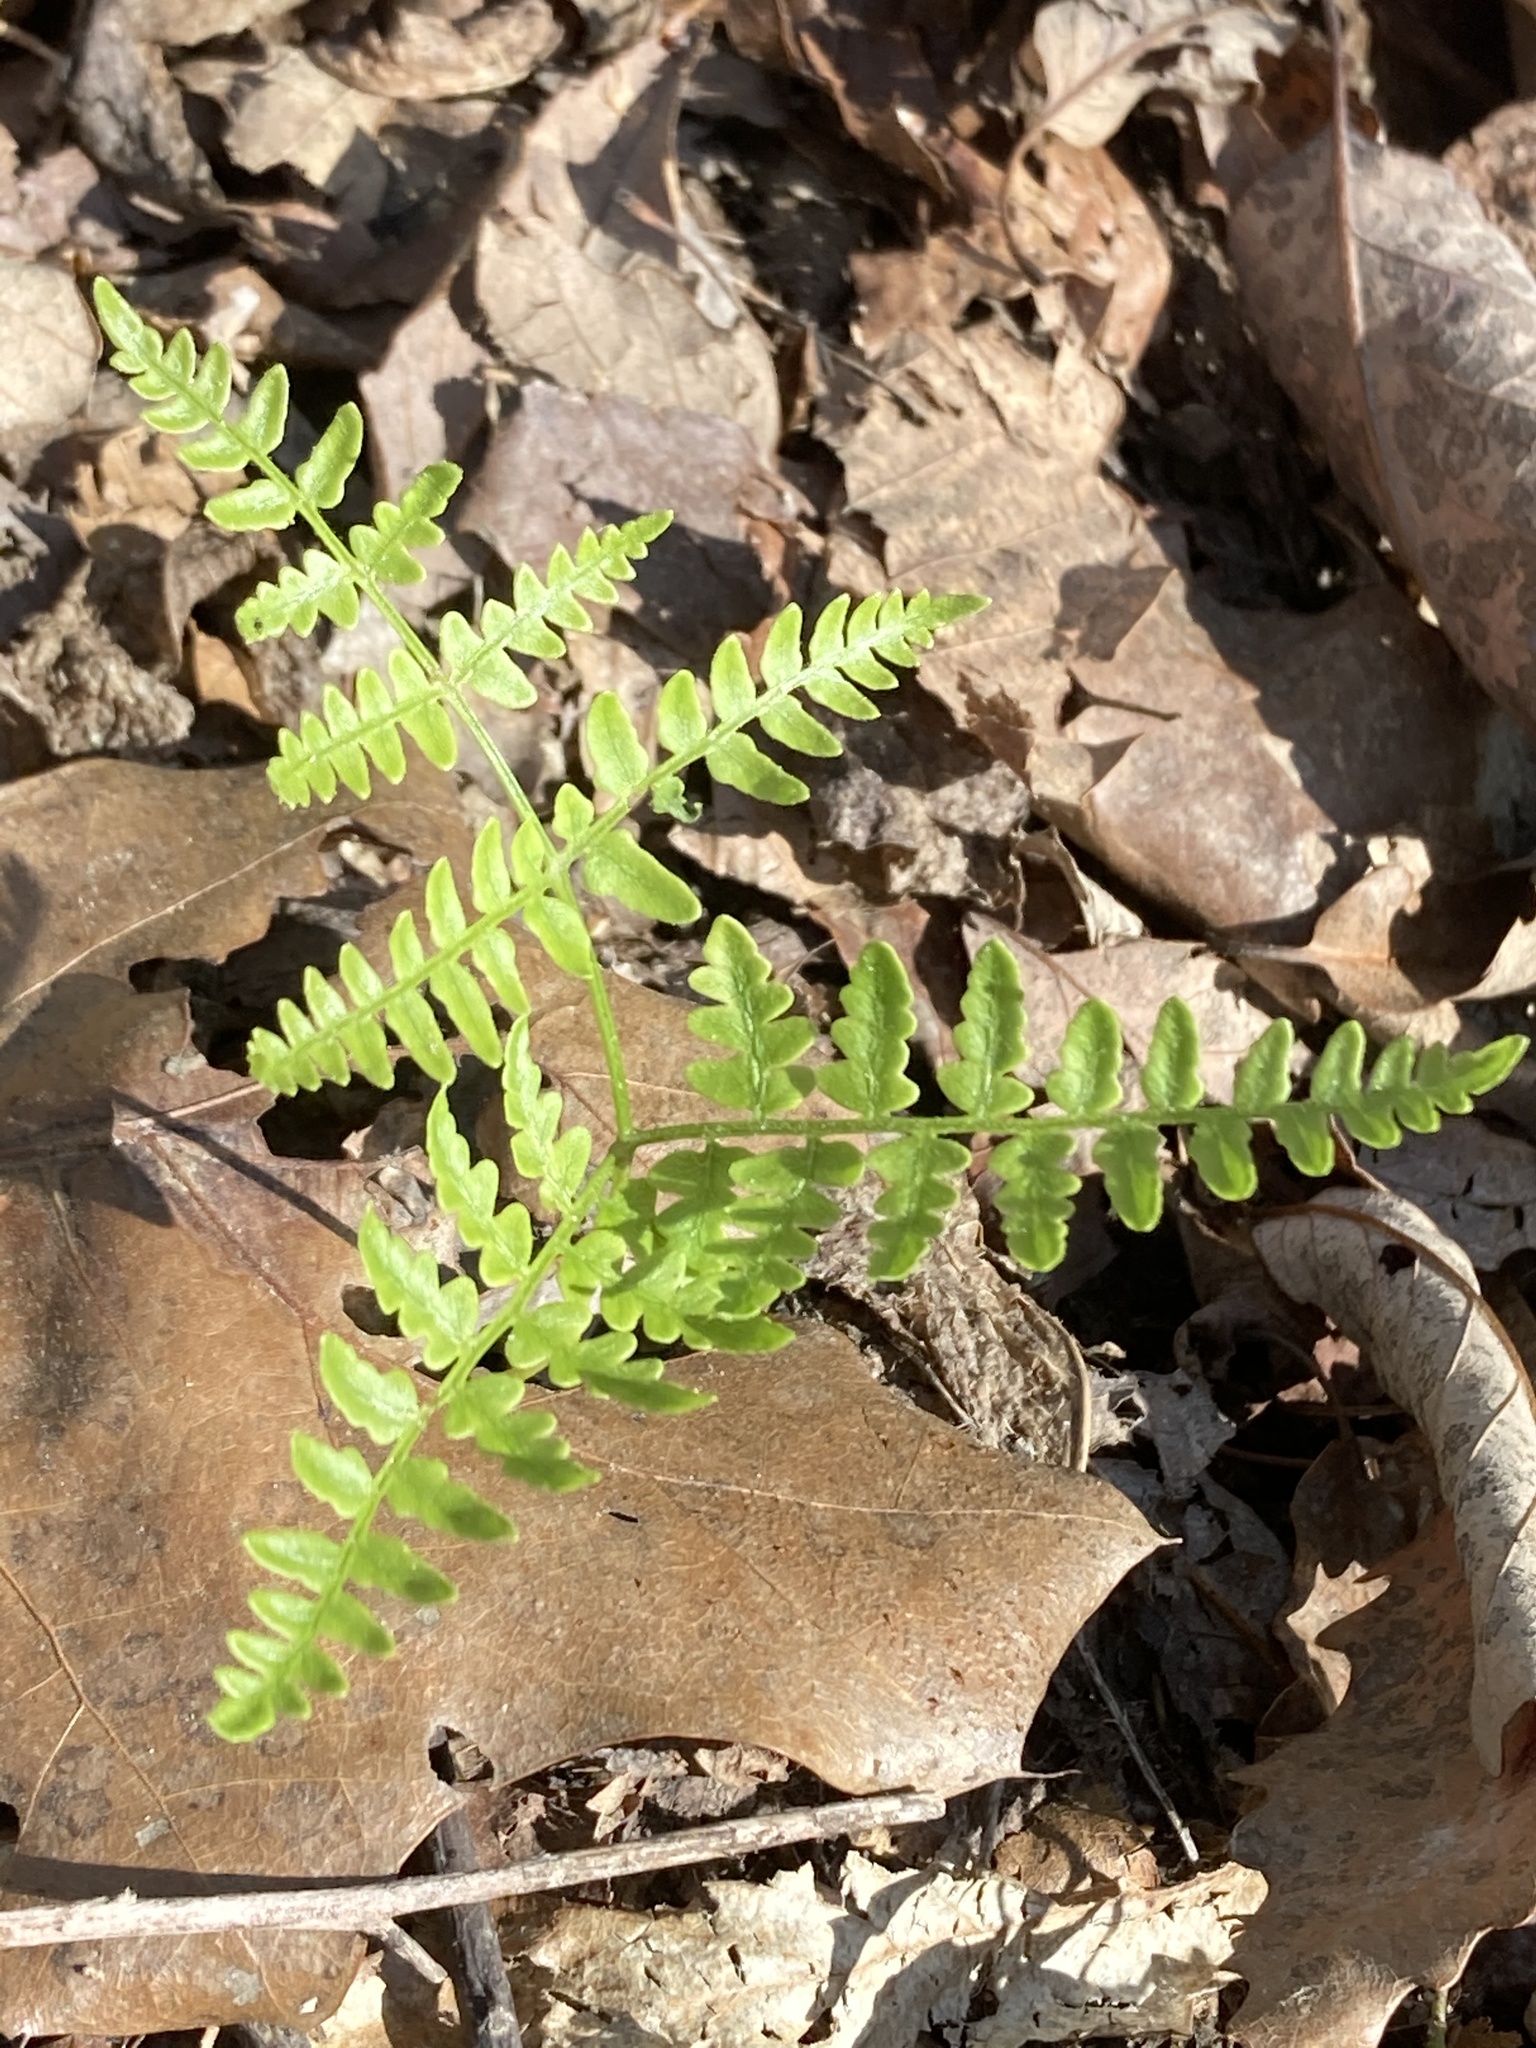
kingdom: Plantae
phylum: Tracheophyta
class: Polypodiopsida
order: Polypodiales
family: Dennstaedtiaceae
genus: Pteridium
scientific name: Pteridium aquilinum
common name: Bracken
